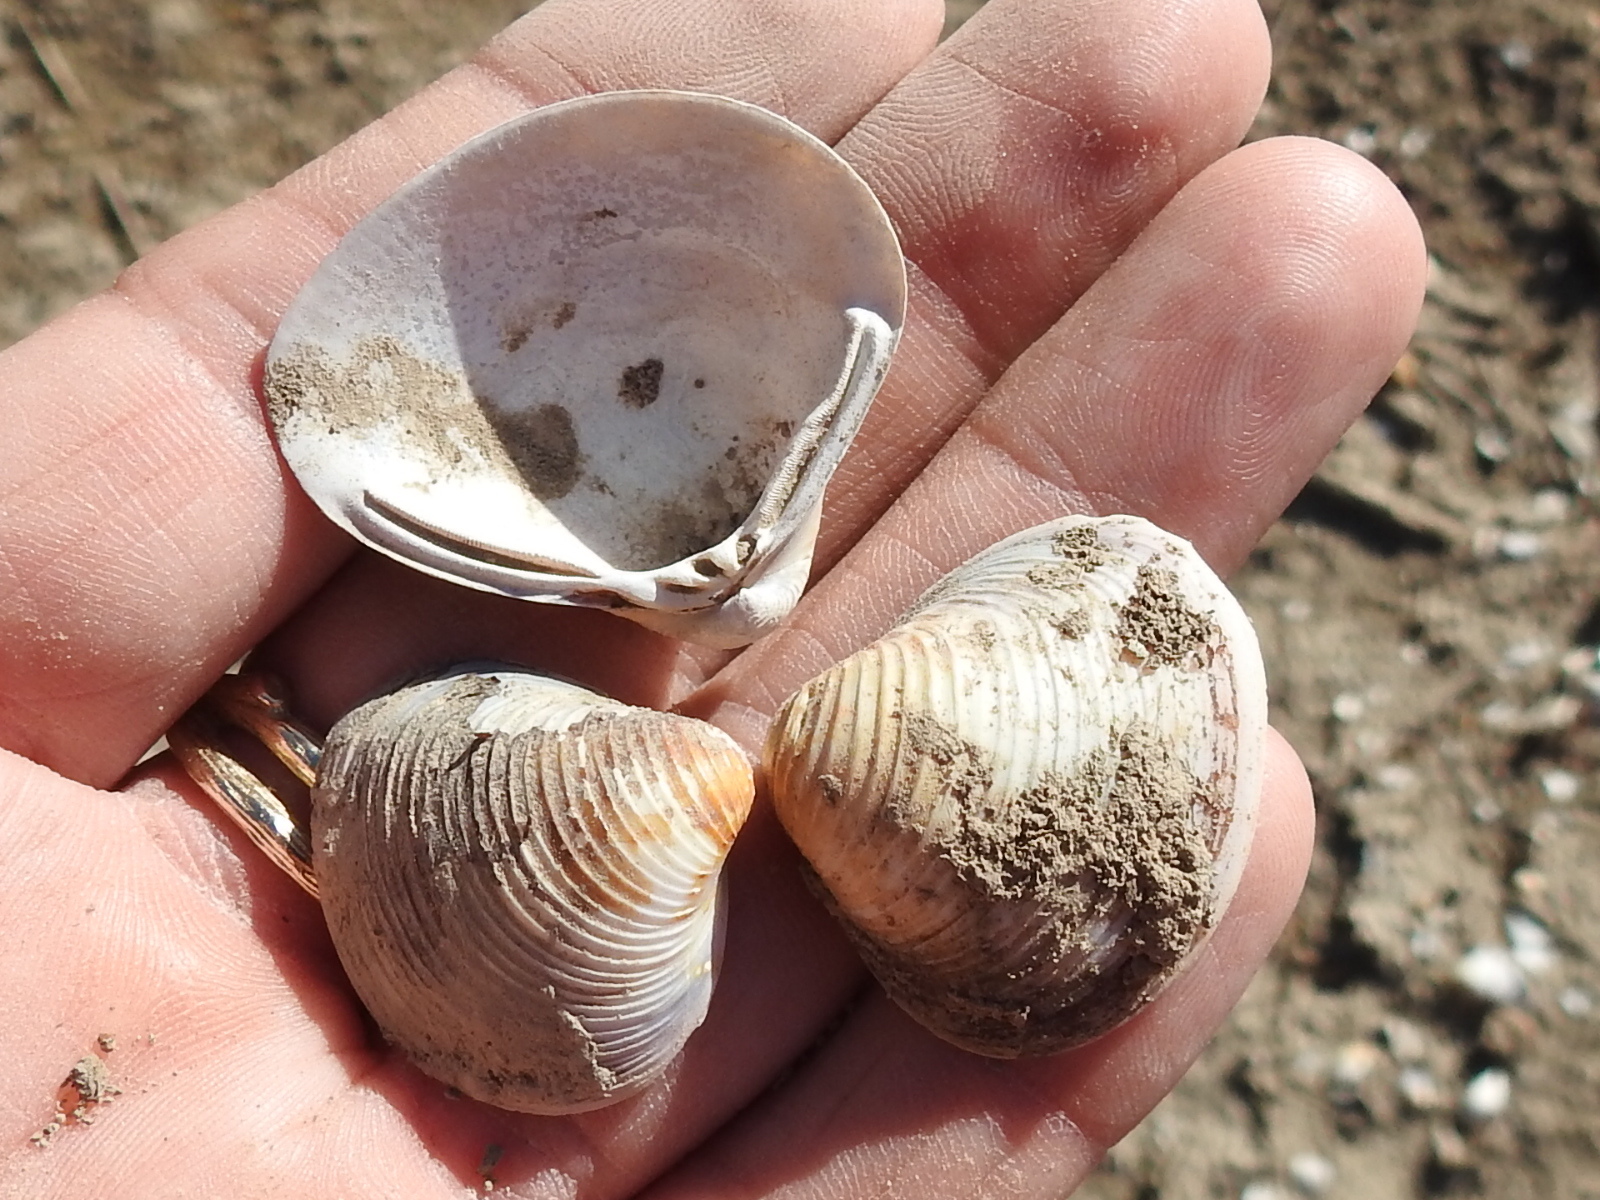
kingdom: Animalia
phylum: Mollusca
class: Bivalvia
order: Venerida
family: Cyrenidae
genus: Corbicula
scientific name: Corbicula fluminea
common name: Asian clam
